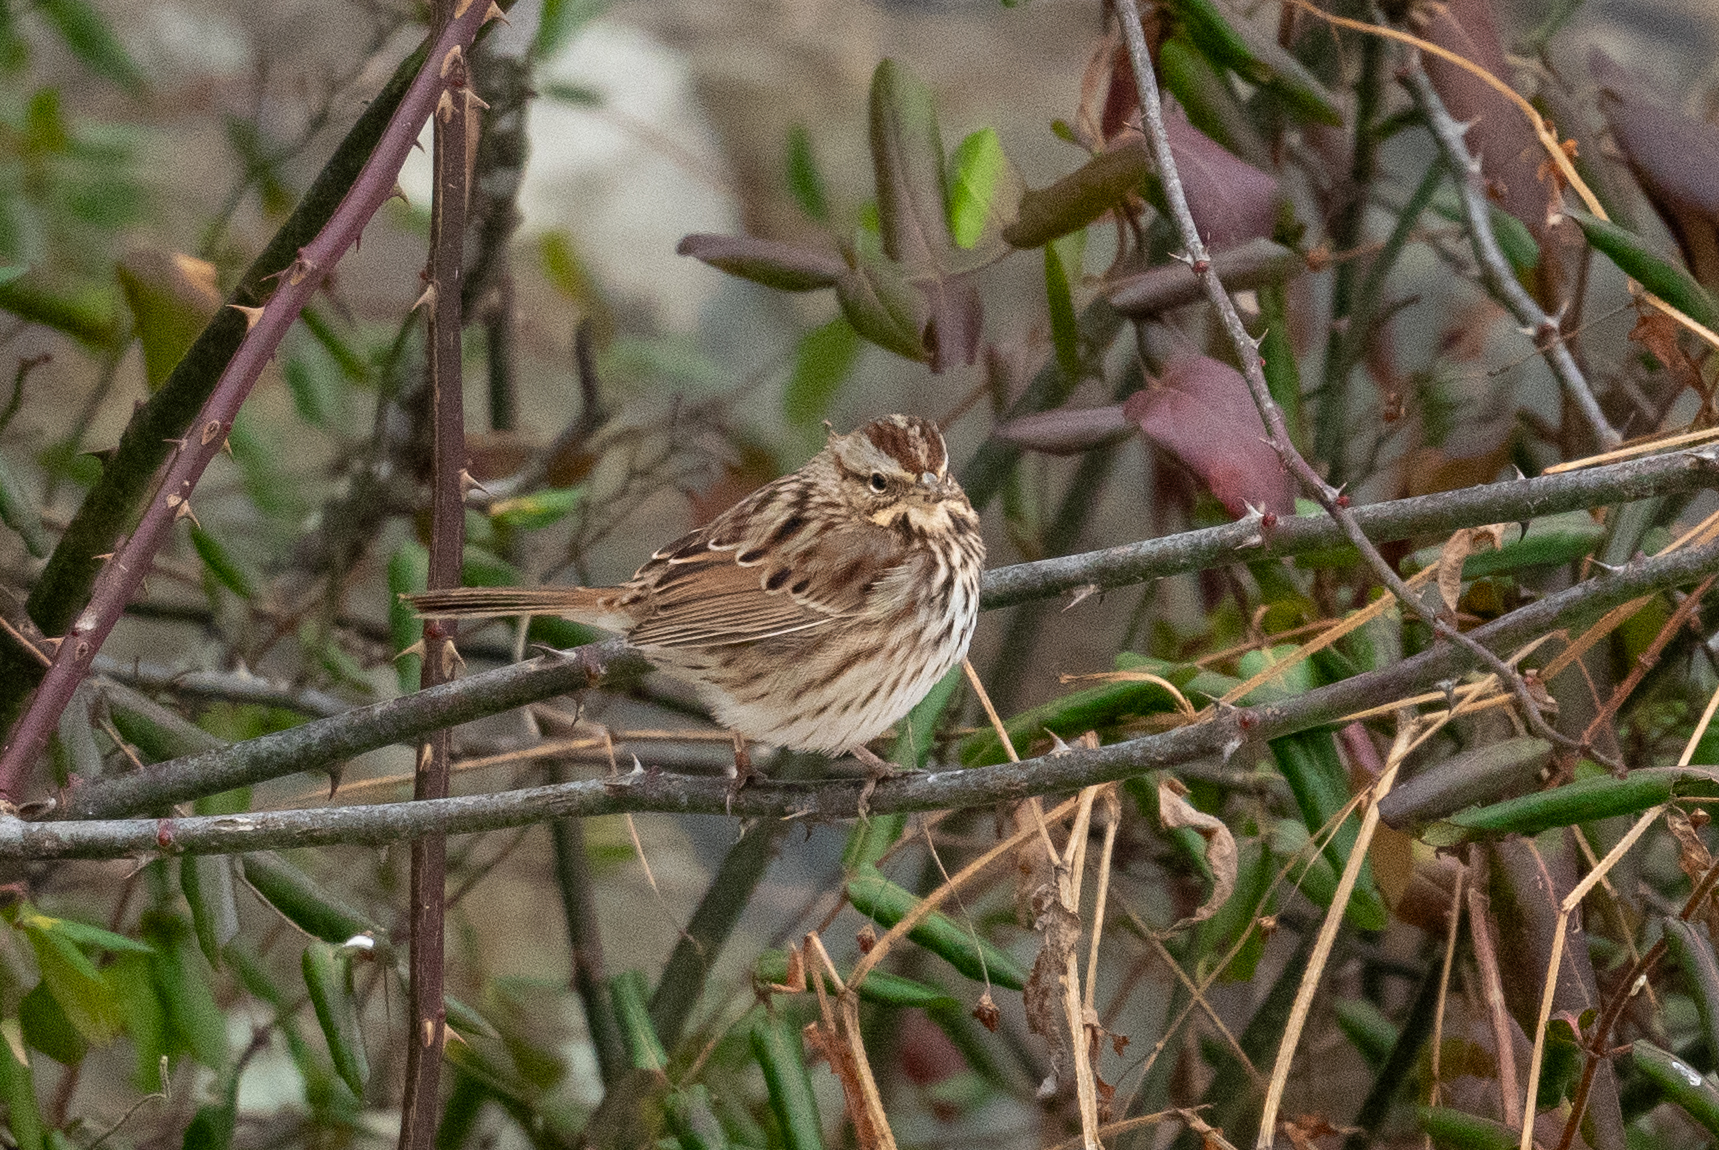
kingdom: Animalia
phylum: Chordata
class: Aves
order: Passeriformes
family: Passerellidae
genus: Melospiza
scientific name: Melospiza melodia
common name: Song sparrow
